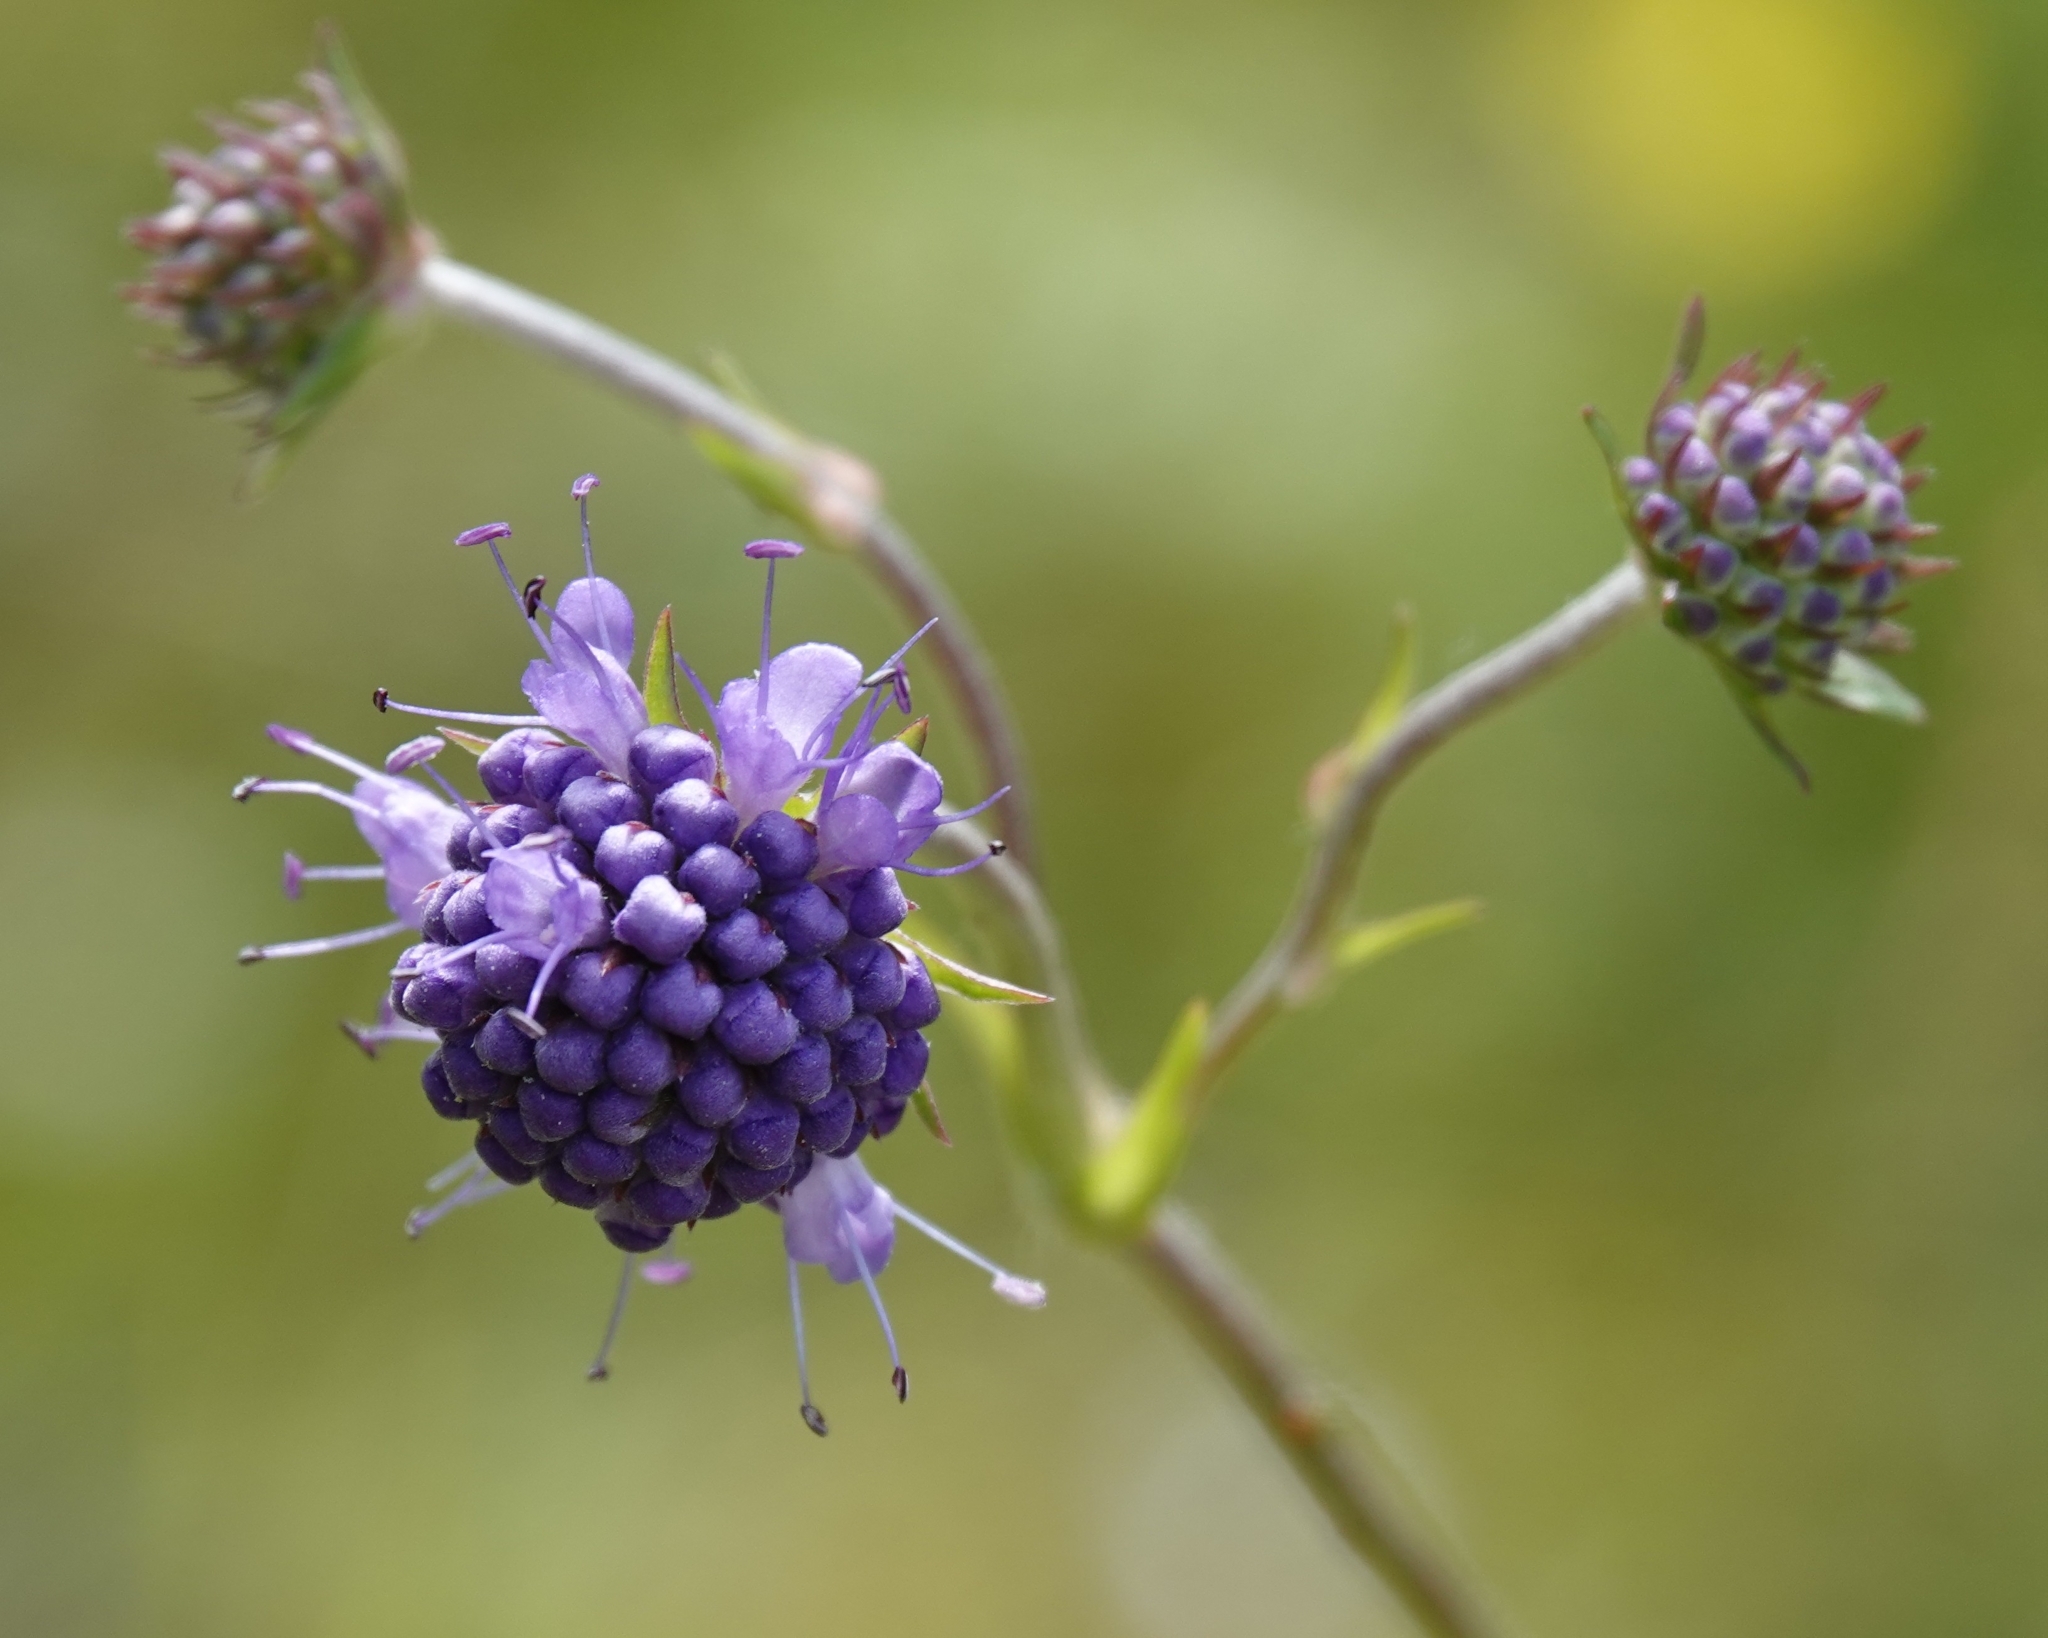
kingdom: Plantae
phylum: Tracheophyta
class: Magnoliopsida
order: Dipsacales
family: Caprifoliaceae
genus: Succisa
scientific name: Succisa pratensis
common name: Devil's-bit
